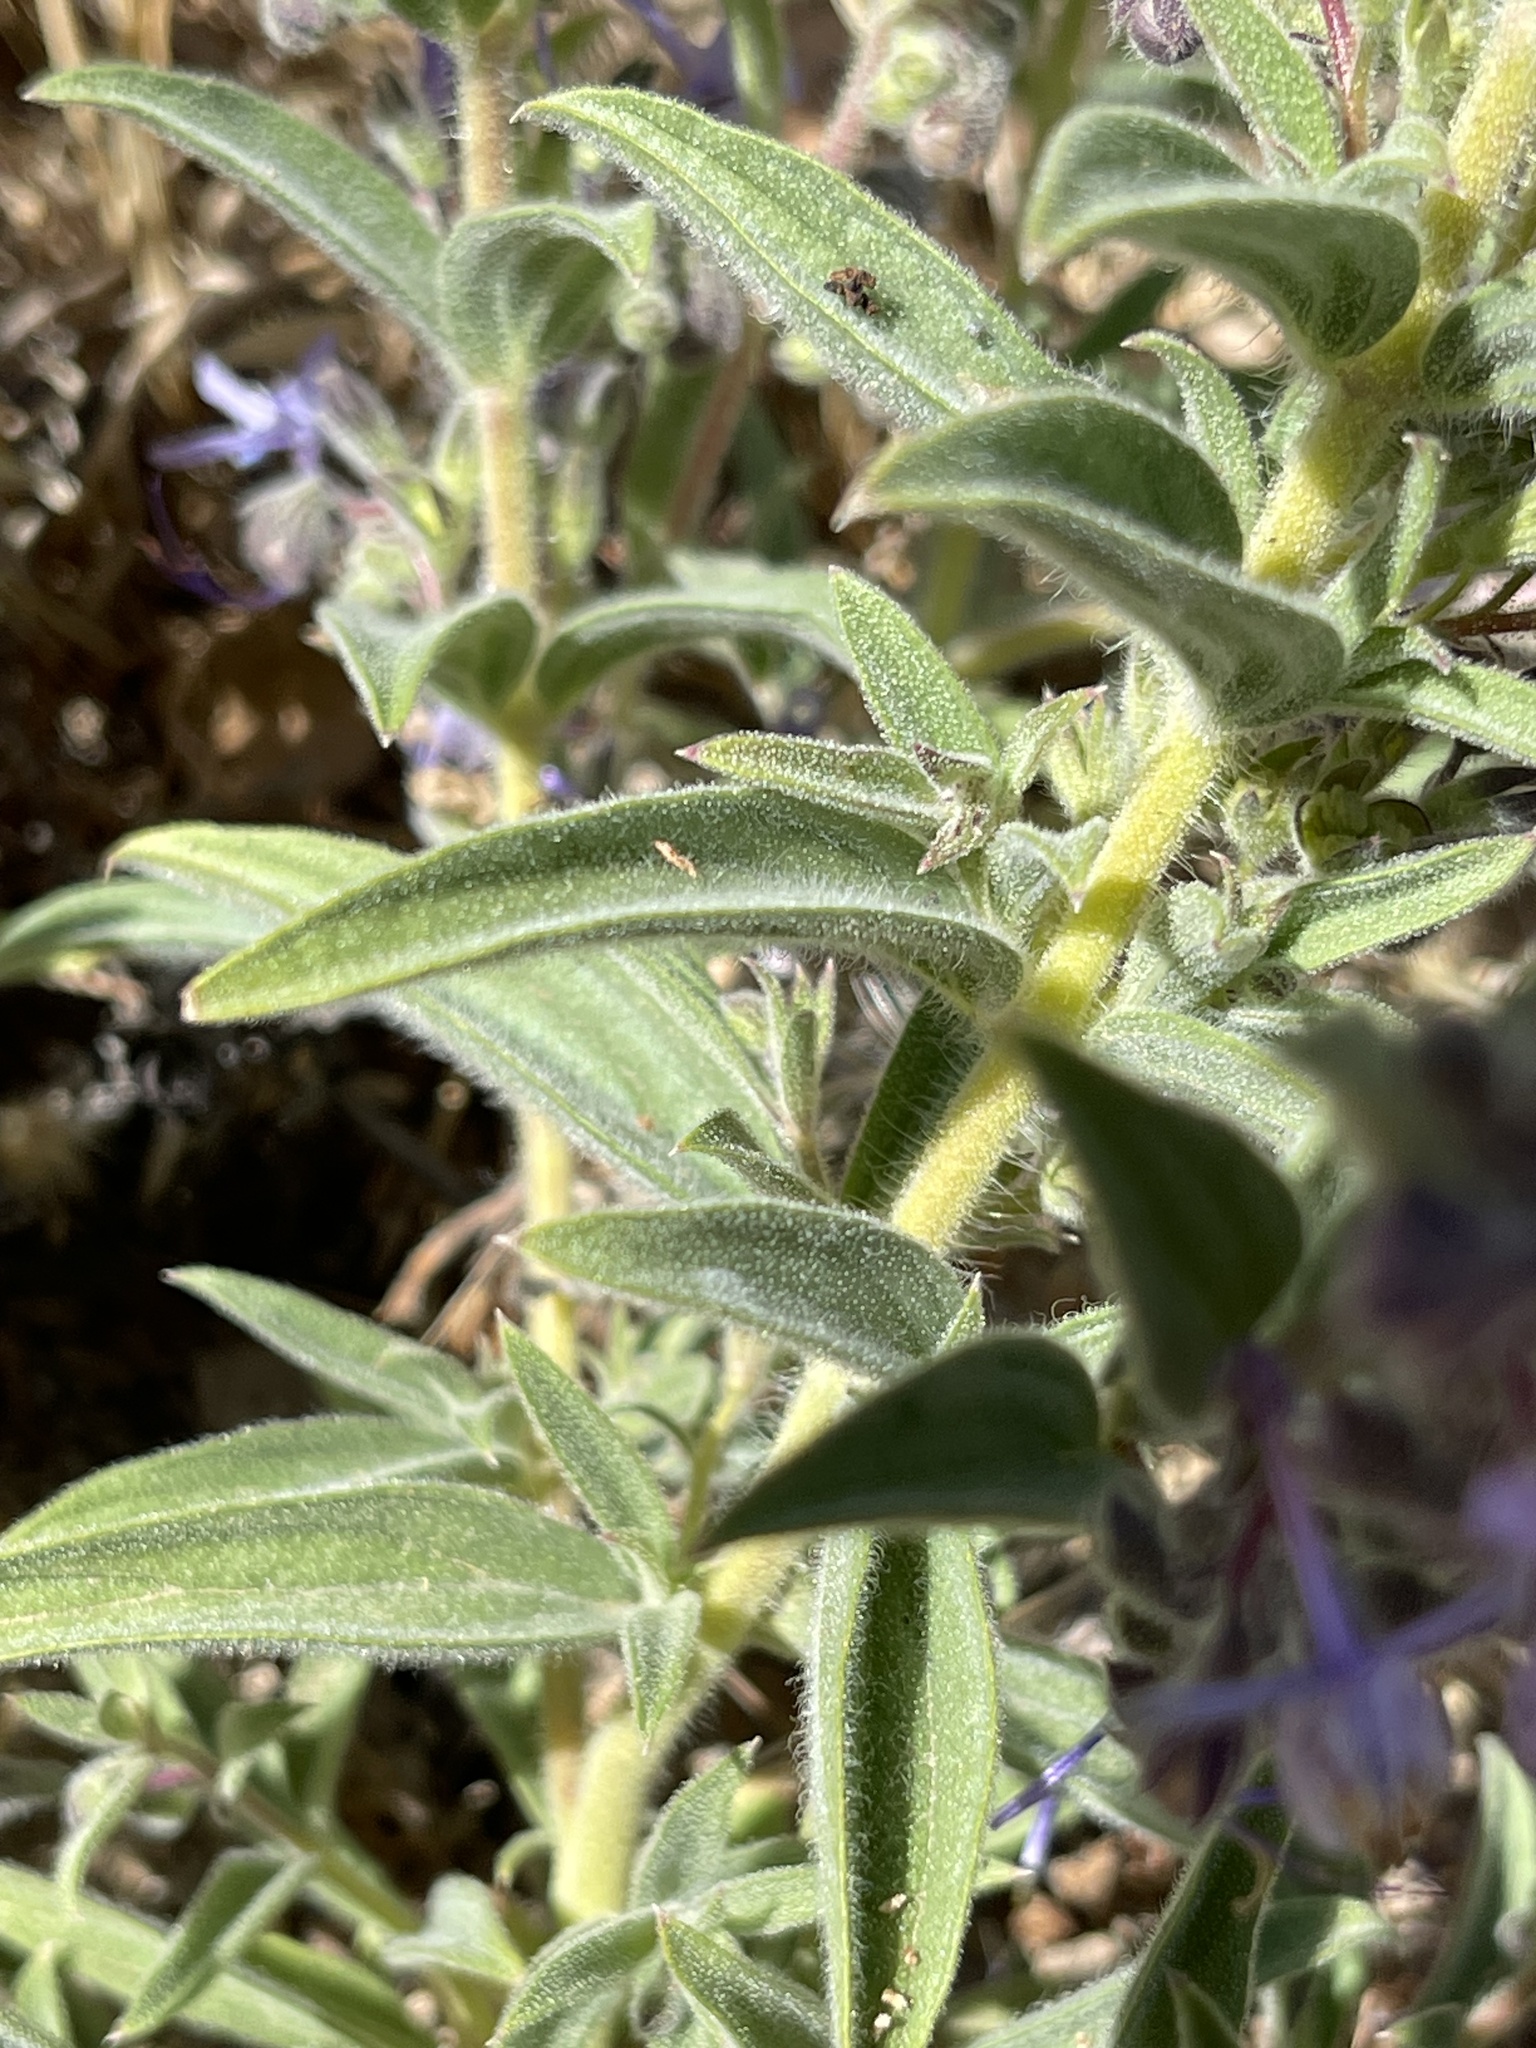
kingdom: Plantae
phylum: Tracheophyta
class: Magnoliopsida
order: Lamiales
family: Lamiaceae
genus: Trichostema
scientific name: Trichostema lanceolatum
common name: Vinegar-weed
